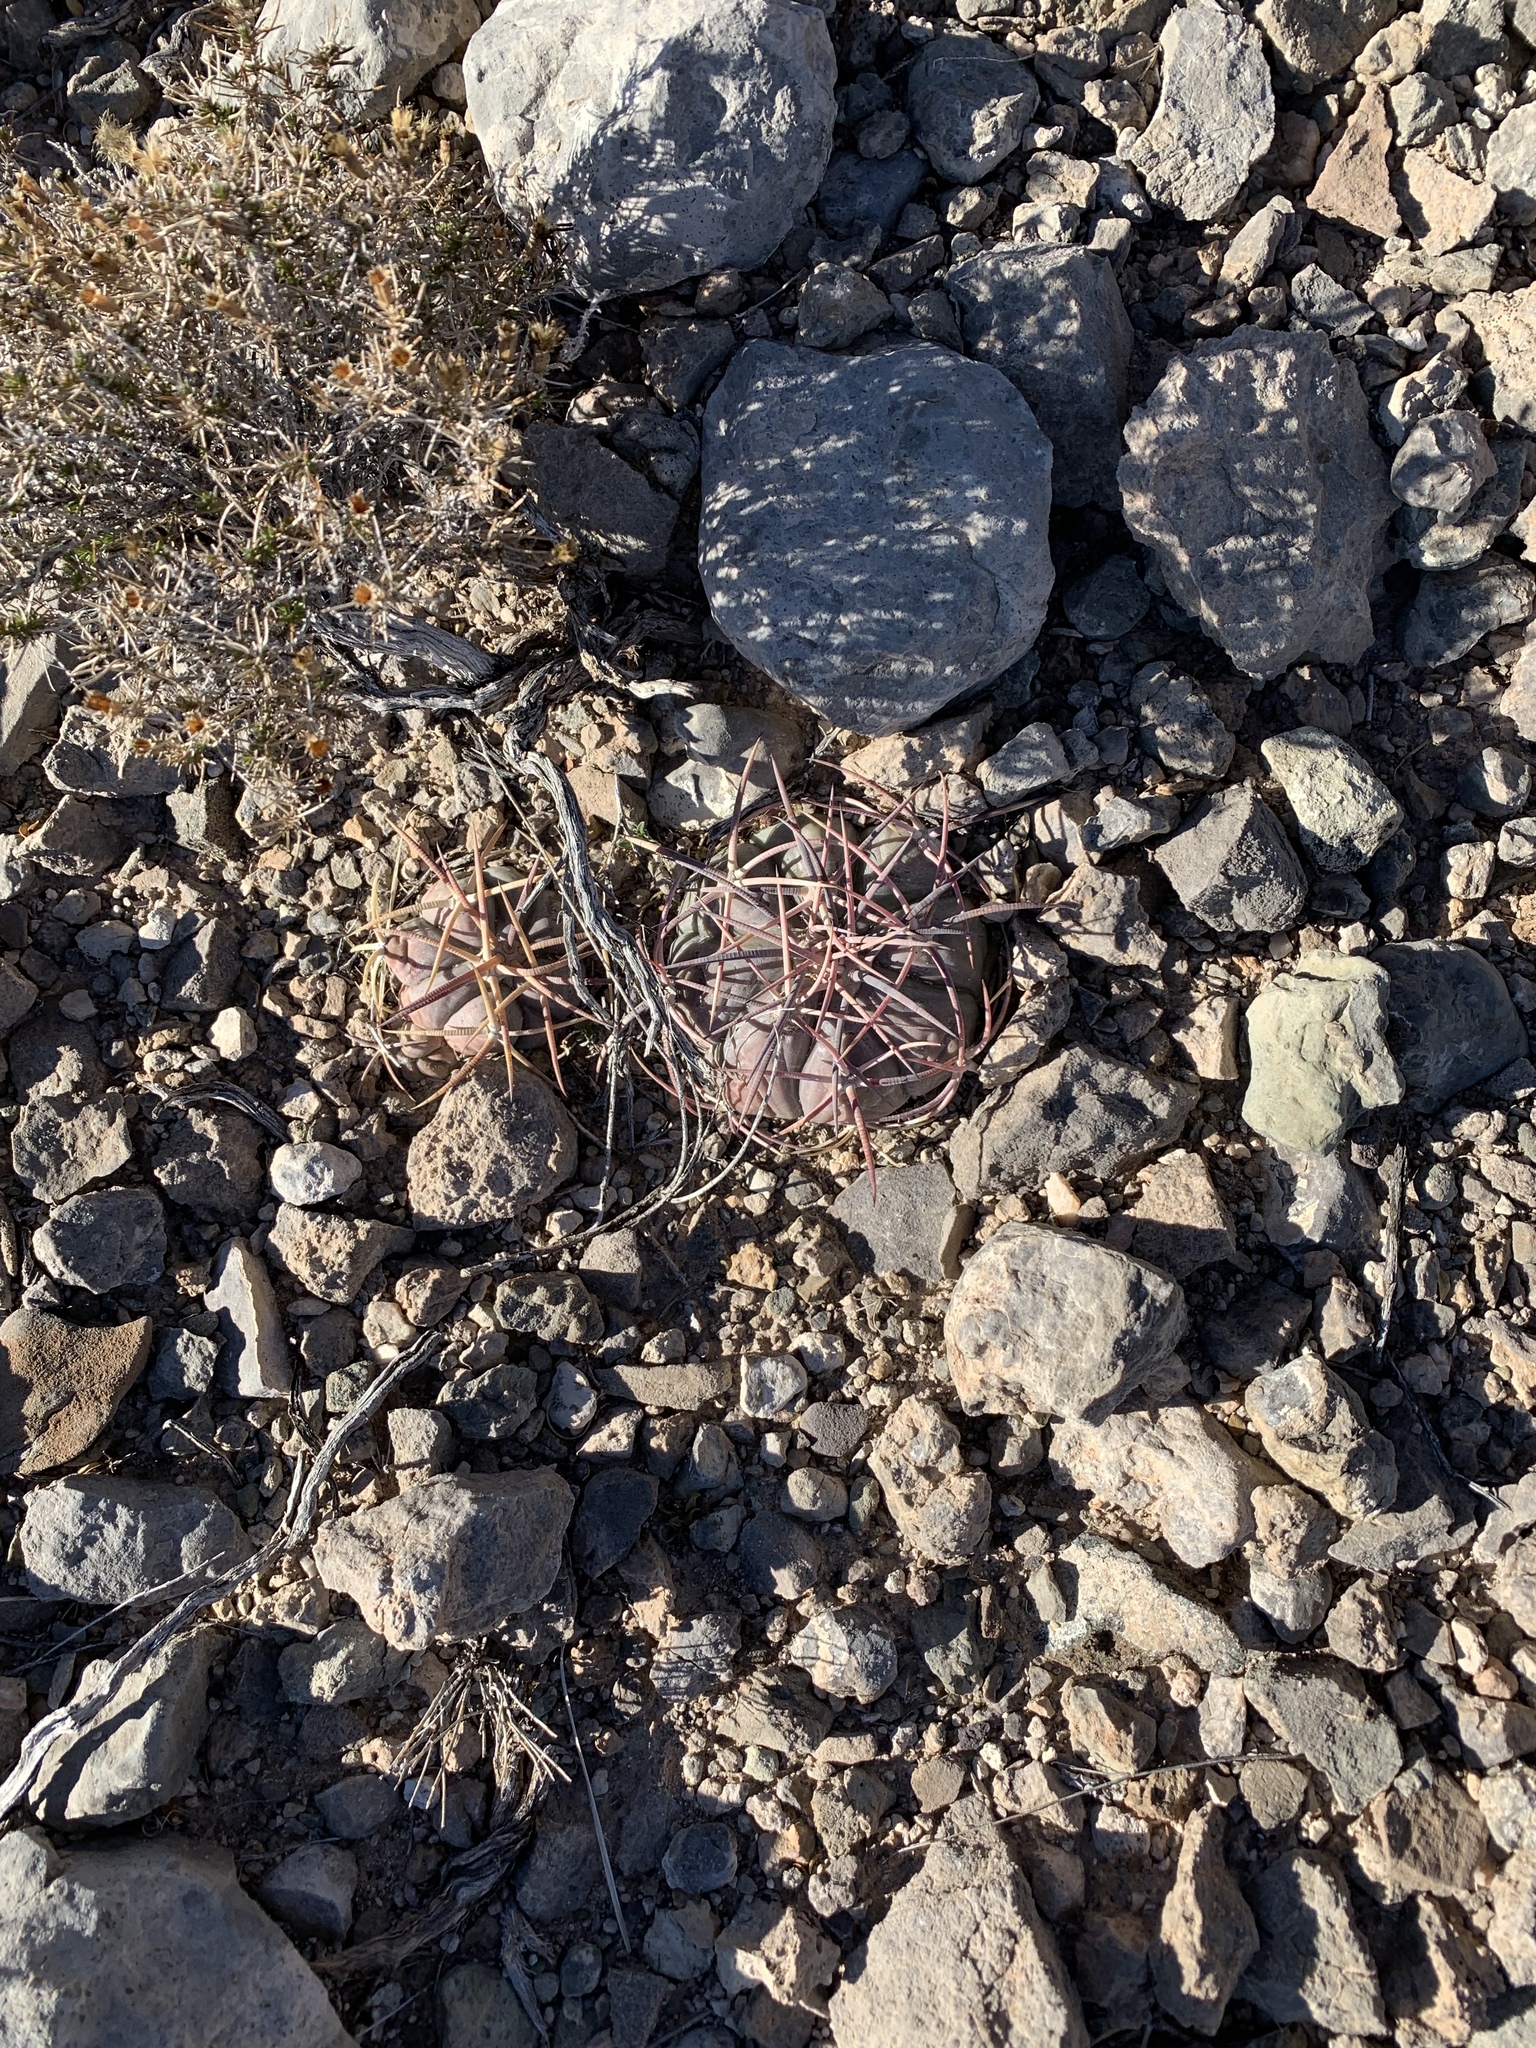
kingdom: Plantae
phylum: Tracheophyta
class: Magnoliopsida
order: Caryophyllales
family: Cactaceae
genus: Echinocactus
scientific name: Echinocactus horizonthalonius
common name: Devilshead
